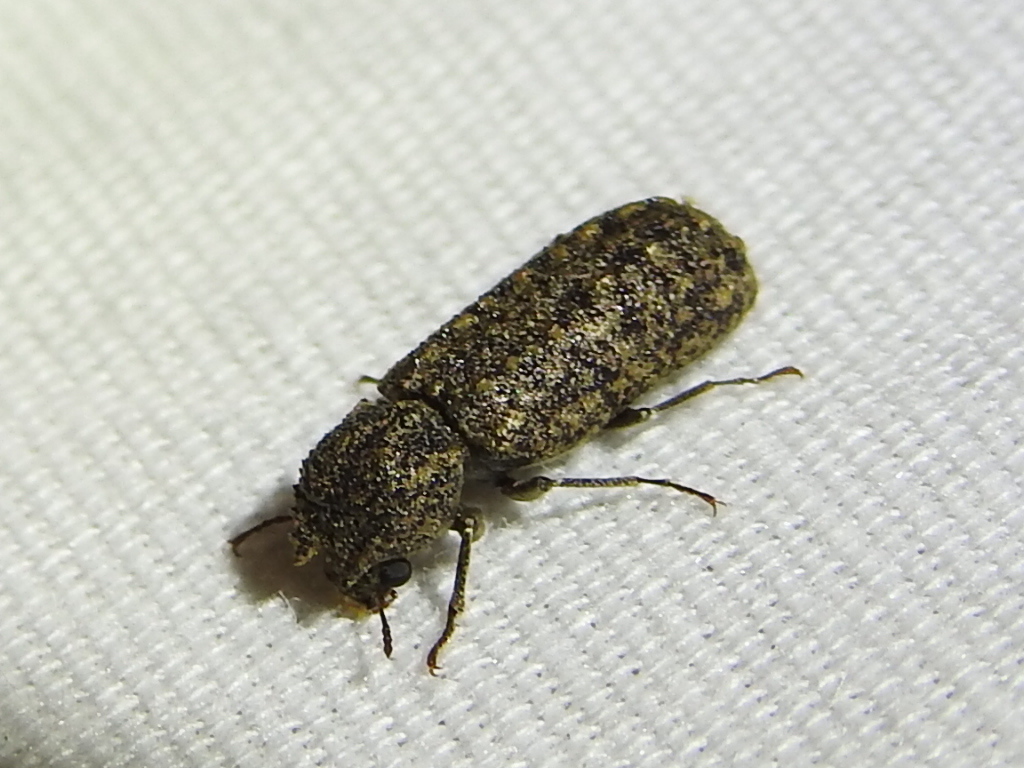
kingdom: Animalia
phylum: Arthropoda
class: Insecta
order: Coleoptera
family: Bostrichidae
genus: Lichenophanes
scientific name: Lichenophanes bicornis
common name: Two-horned powder-post beetle
